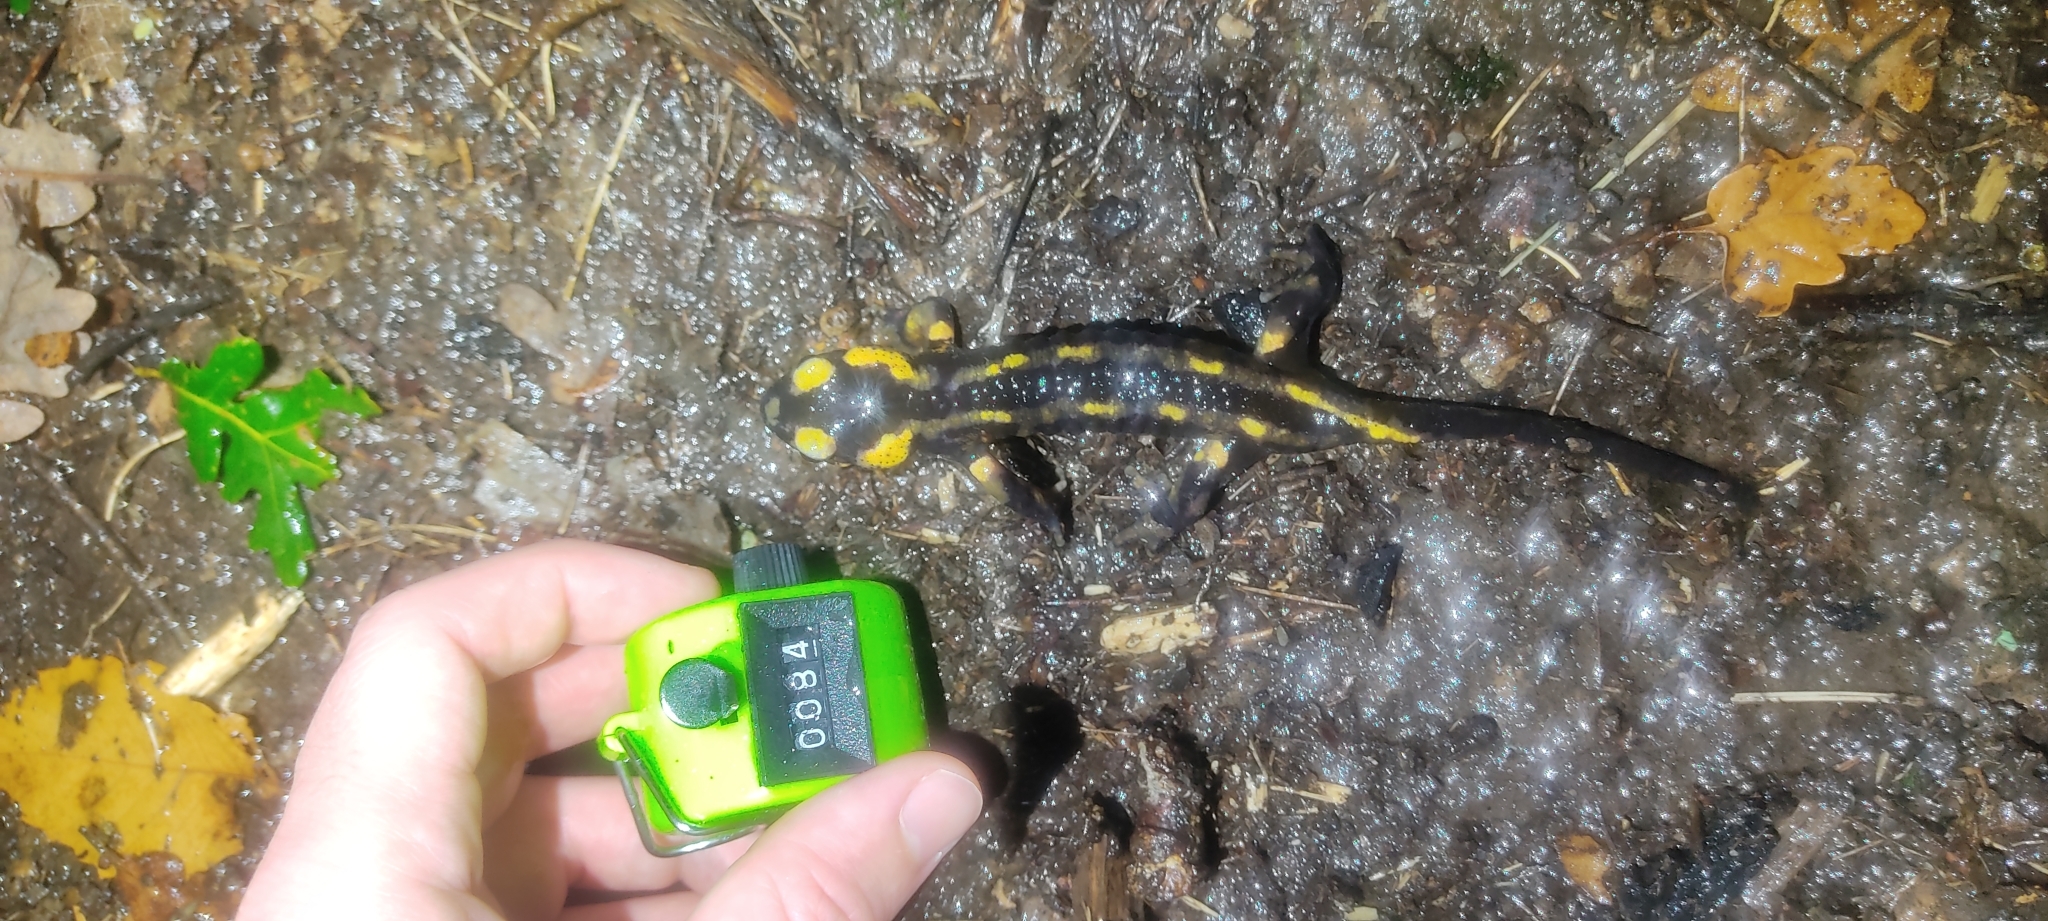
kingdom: Animalia
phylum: Chordata
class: Amphibia
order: Caudata
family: Salamandridae
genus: Salamandra
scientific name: Salamandra salamandra
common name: Fire salamander
